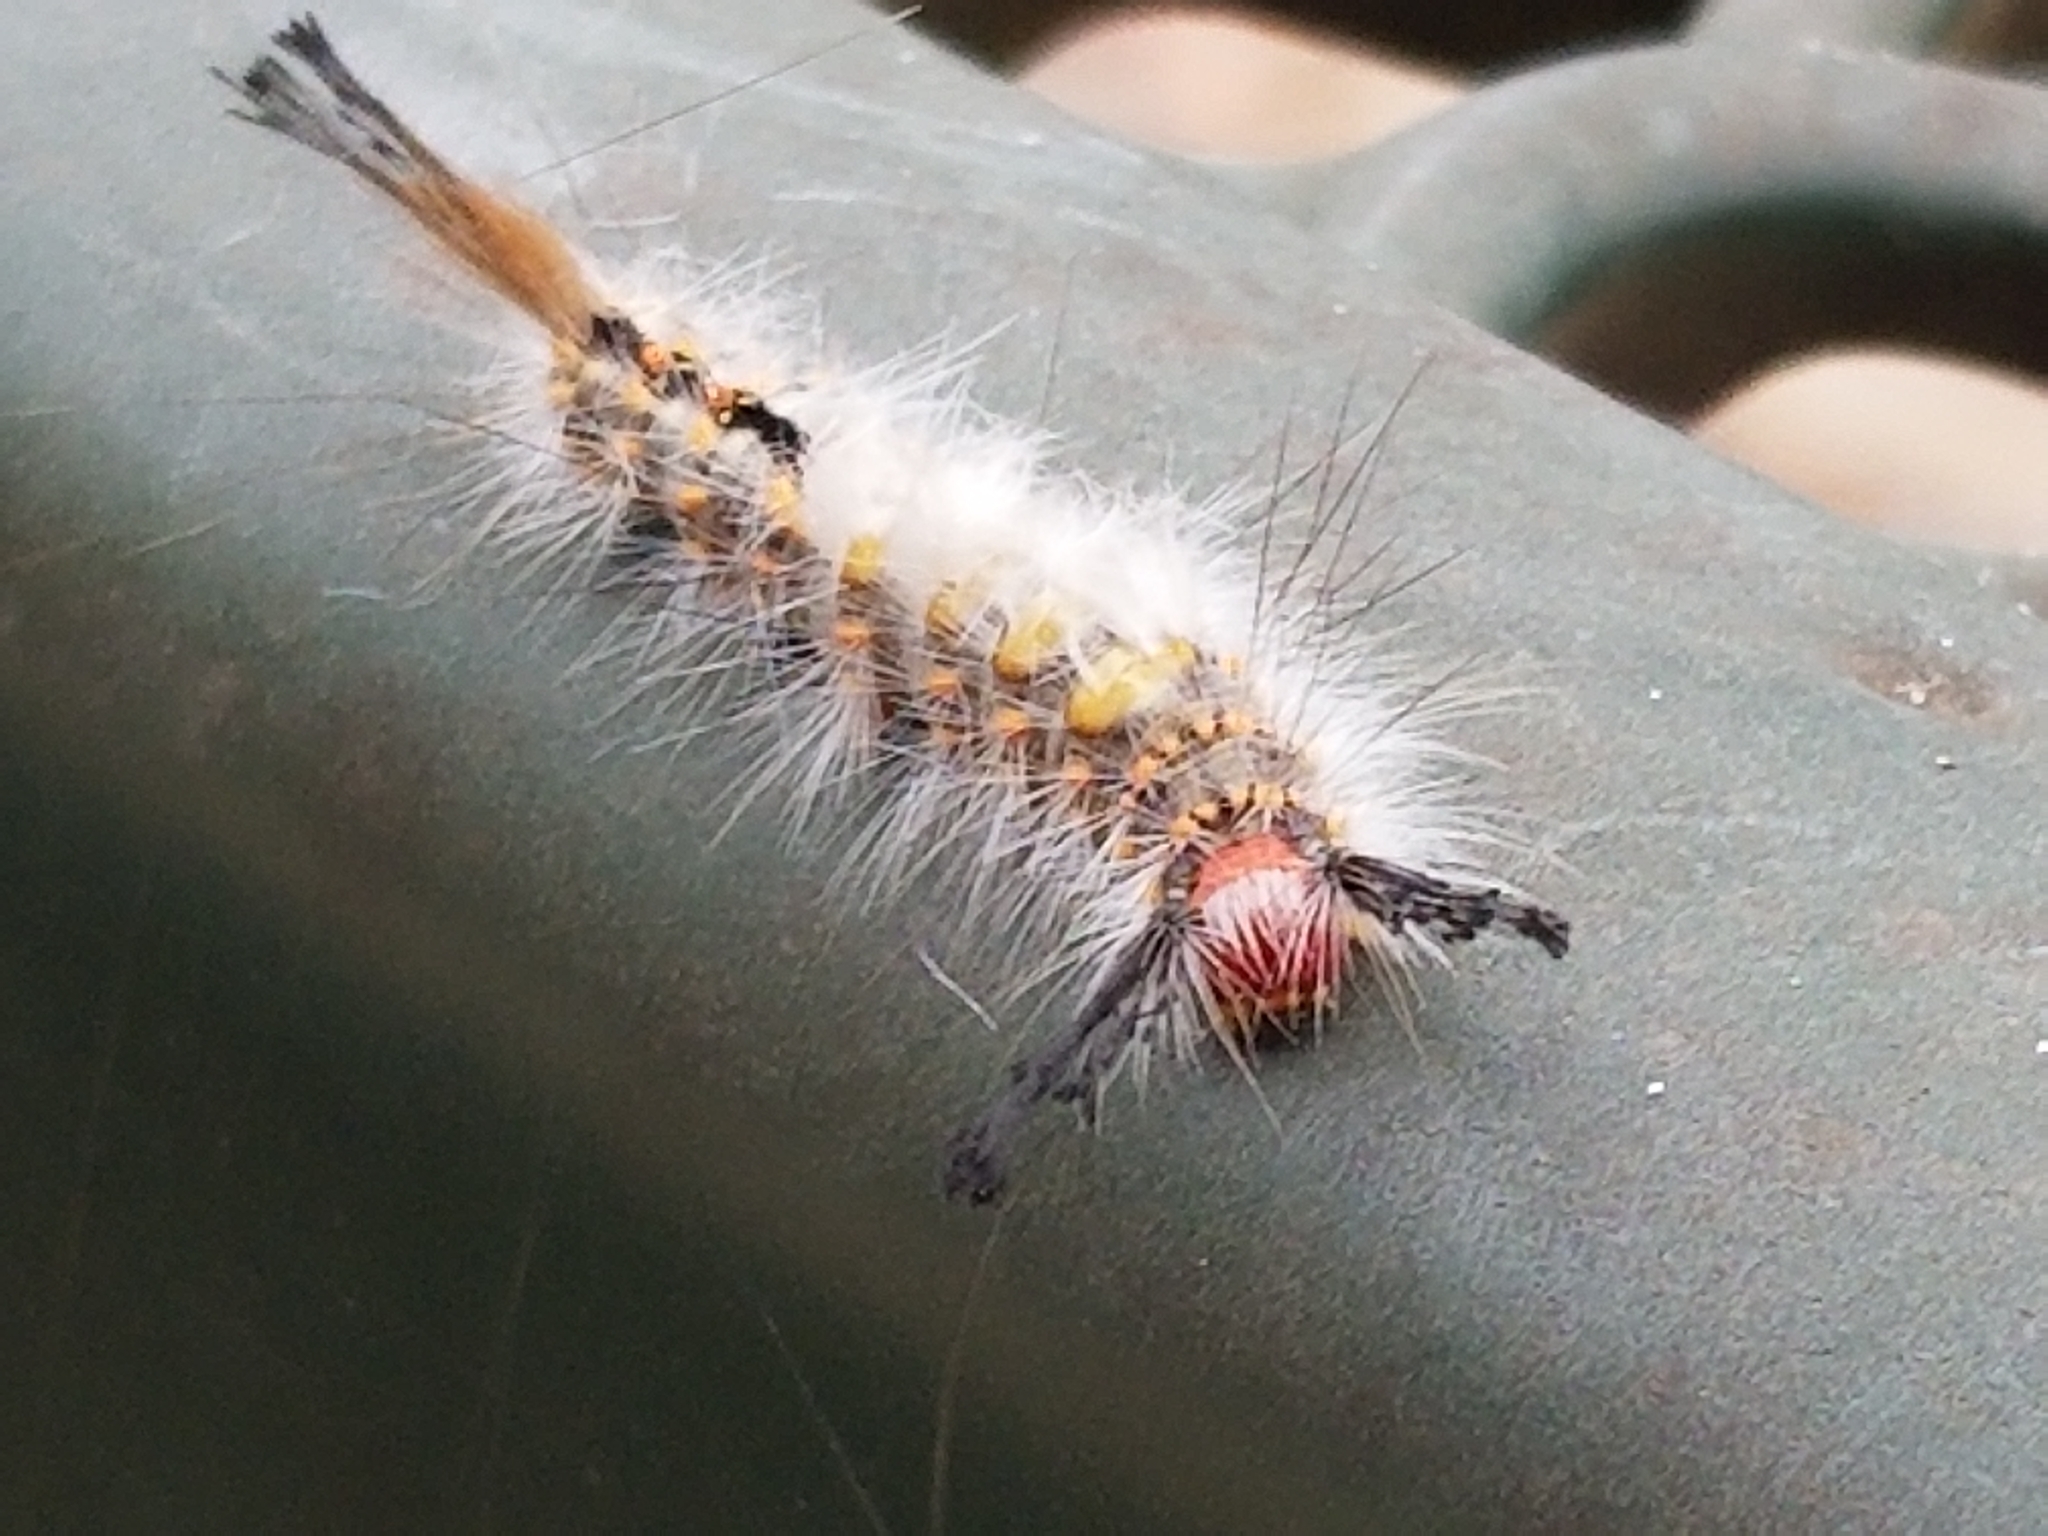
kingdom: Animalia
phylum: Arthropoda
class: Insecta
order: Lepidoptera
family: Erebidae
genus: Orgyia
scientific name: Orgyia detrita
